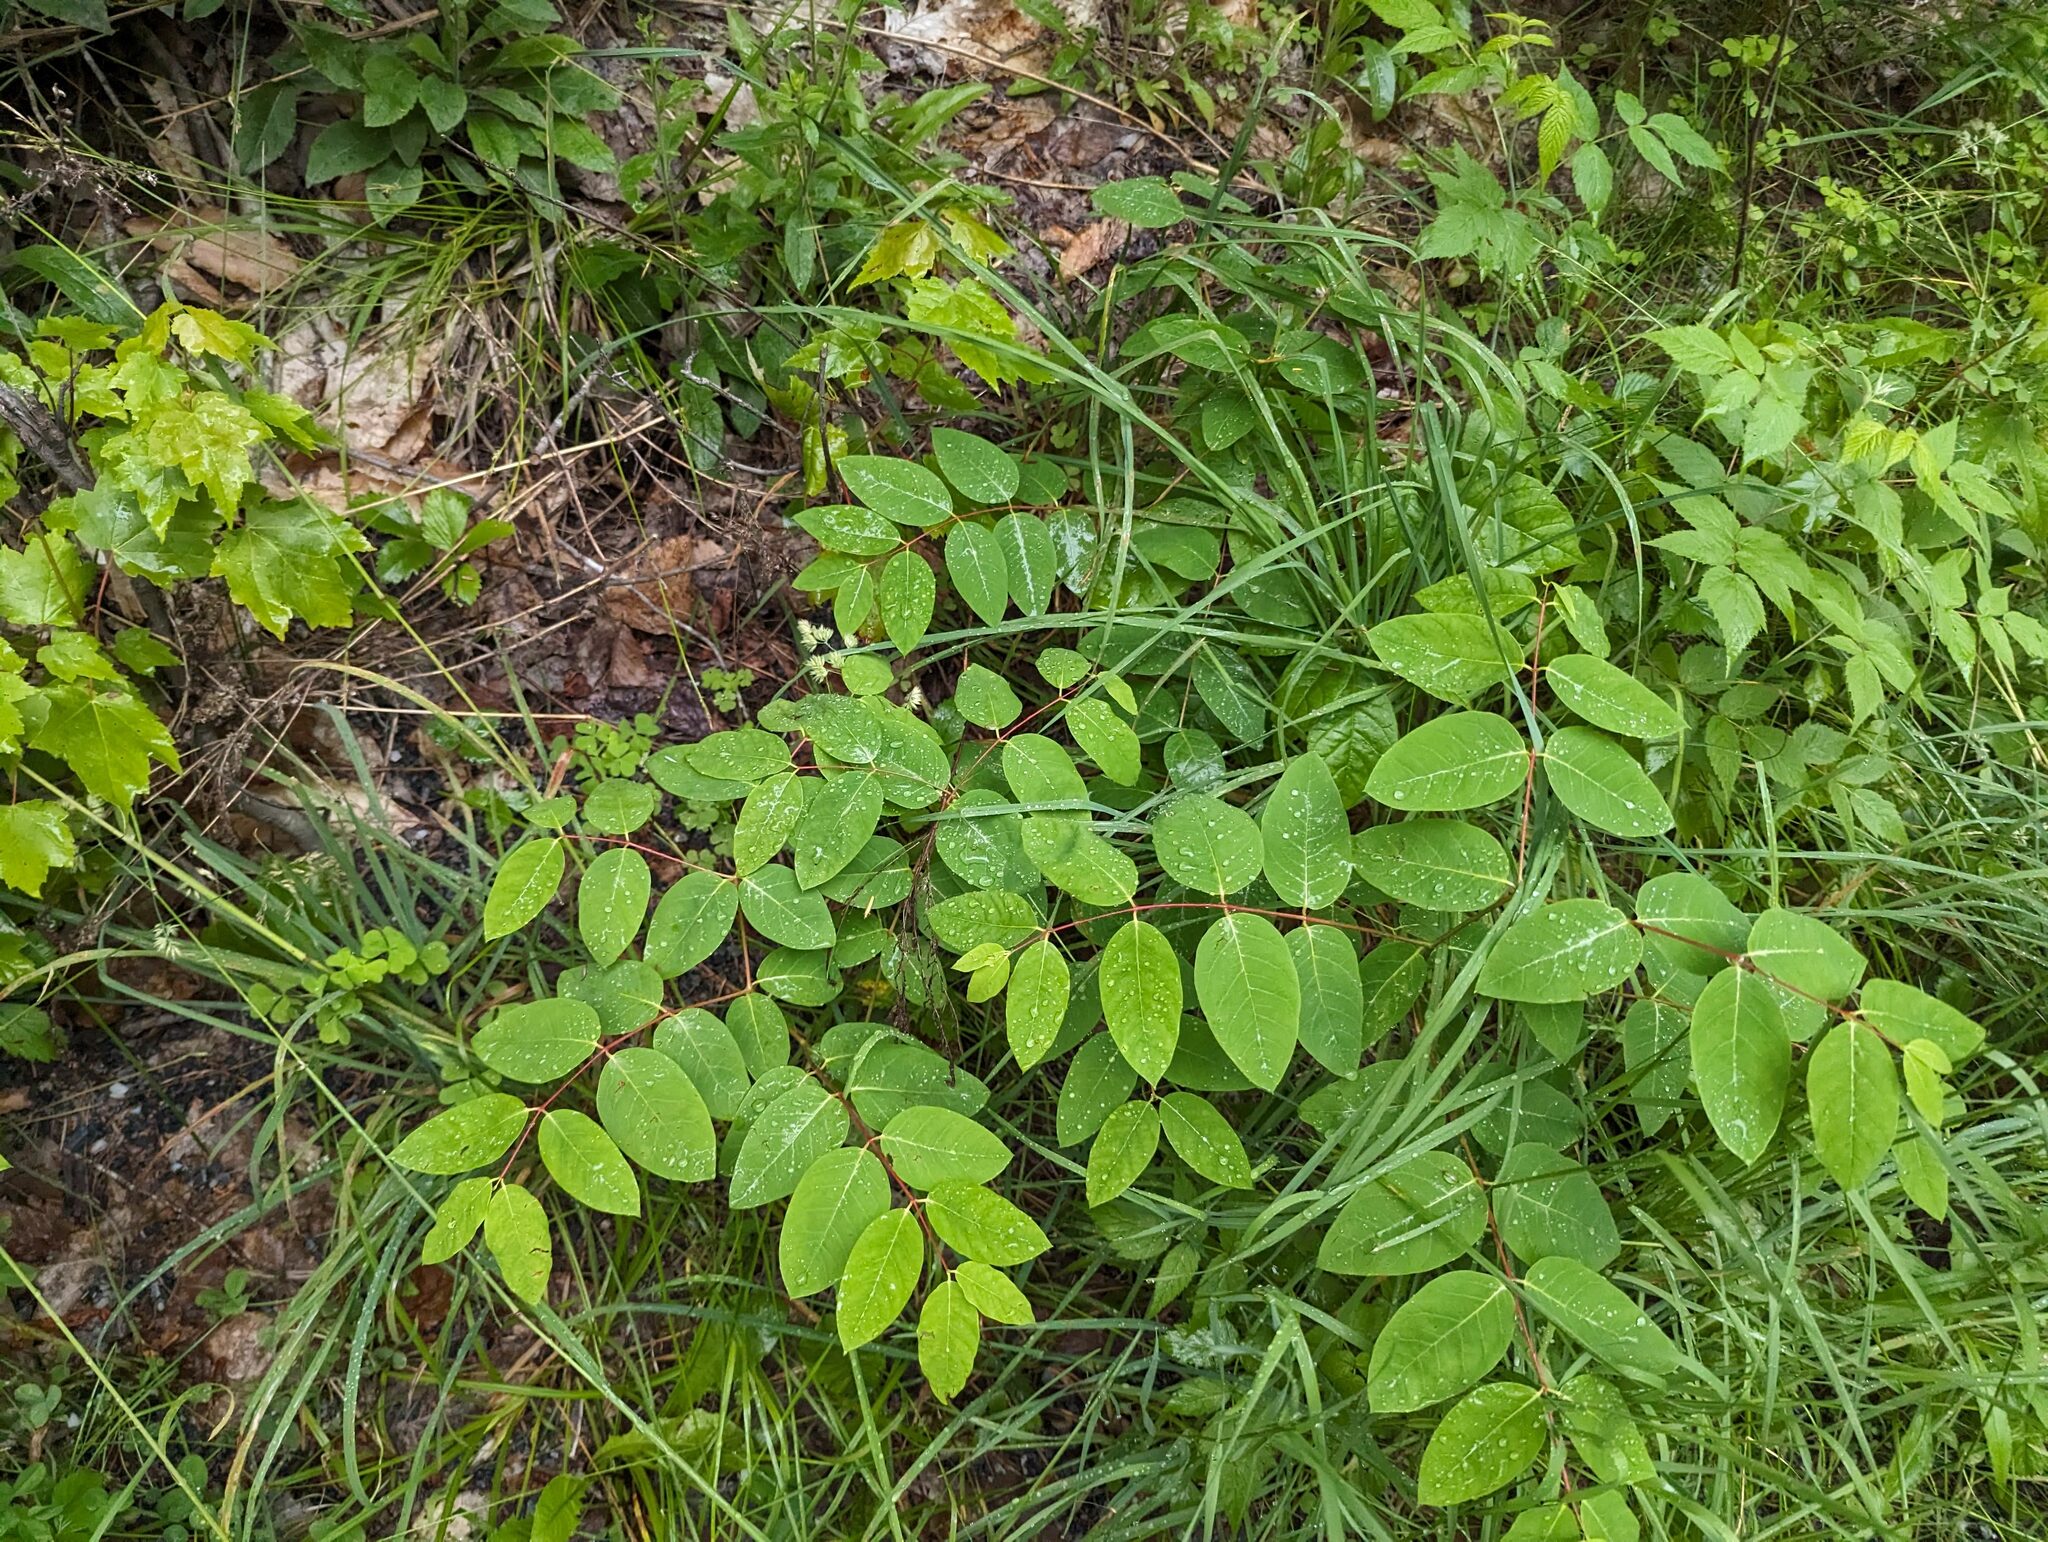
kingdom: Plantae
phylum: Tracheophyta
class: Magnoliopsida
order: Gentianales
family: Apocynaceae
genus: Apocynum
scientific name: Apocynum androsaemifolium
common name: Spreading dogbane
